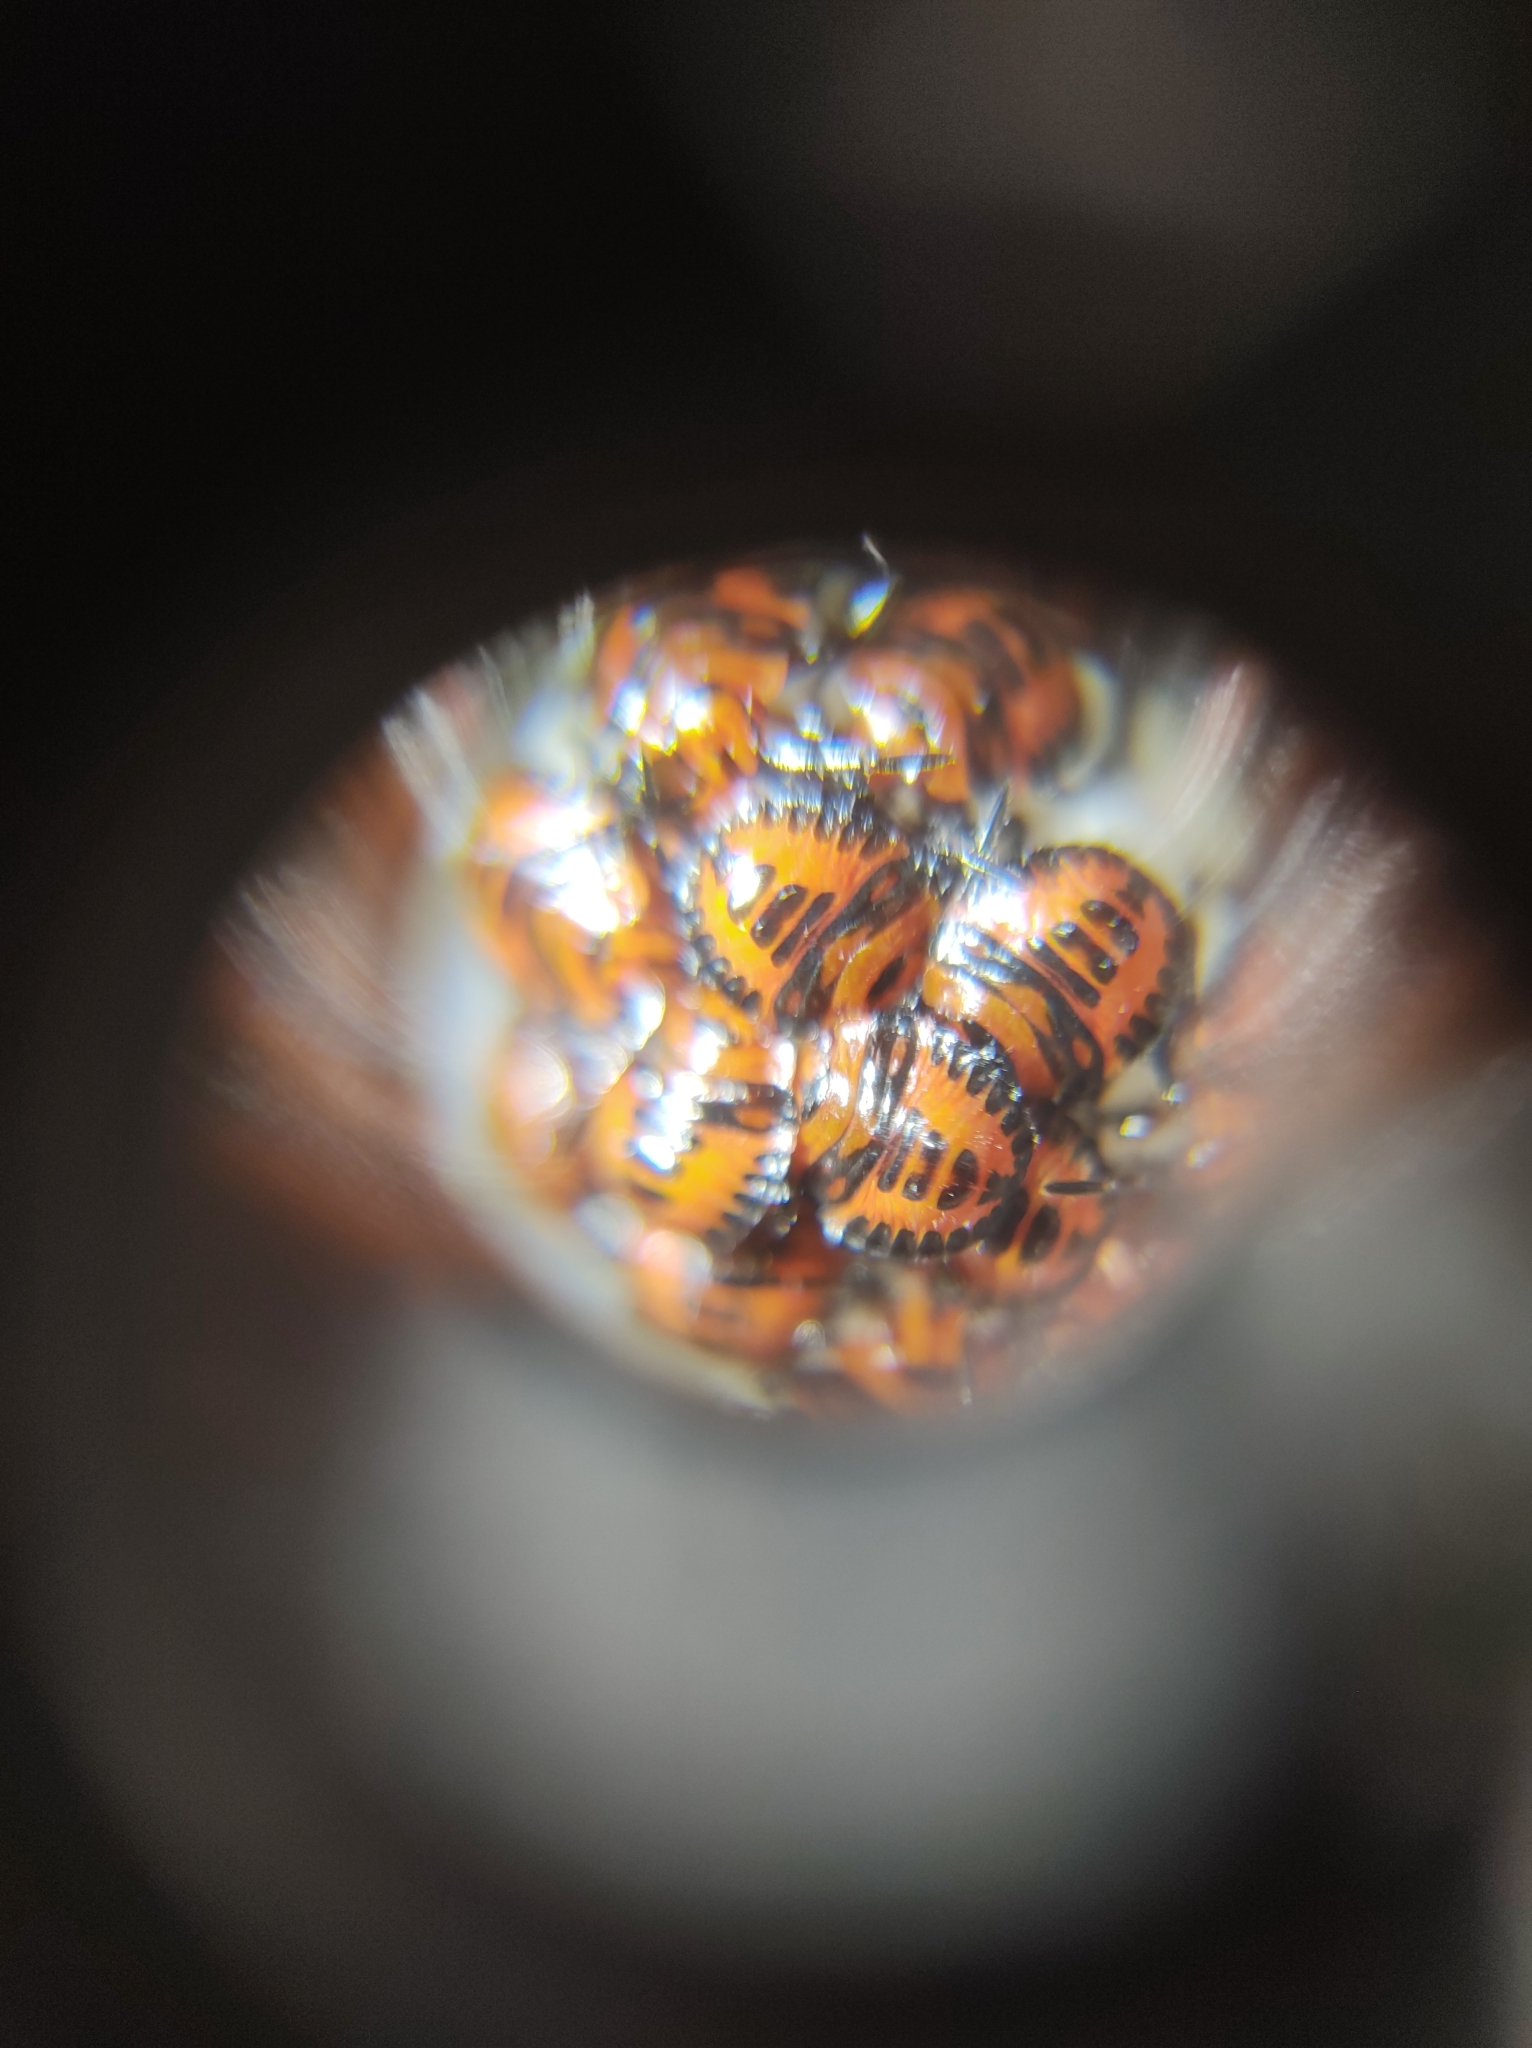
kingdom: Animalia
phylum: Arthropoda
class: Insecta
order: Hemiptera
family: Pentatomidae
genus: Murgantia
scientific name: Murgantia histrionica
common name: Harlequin bug
